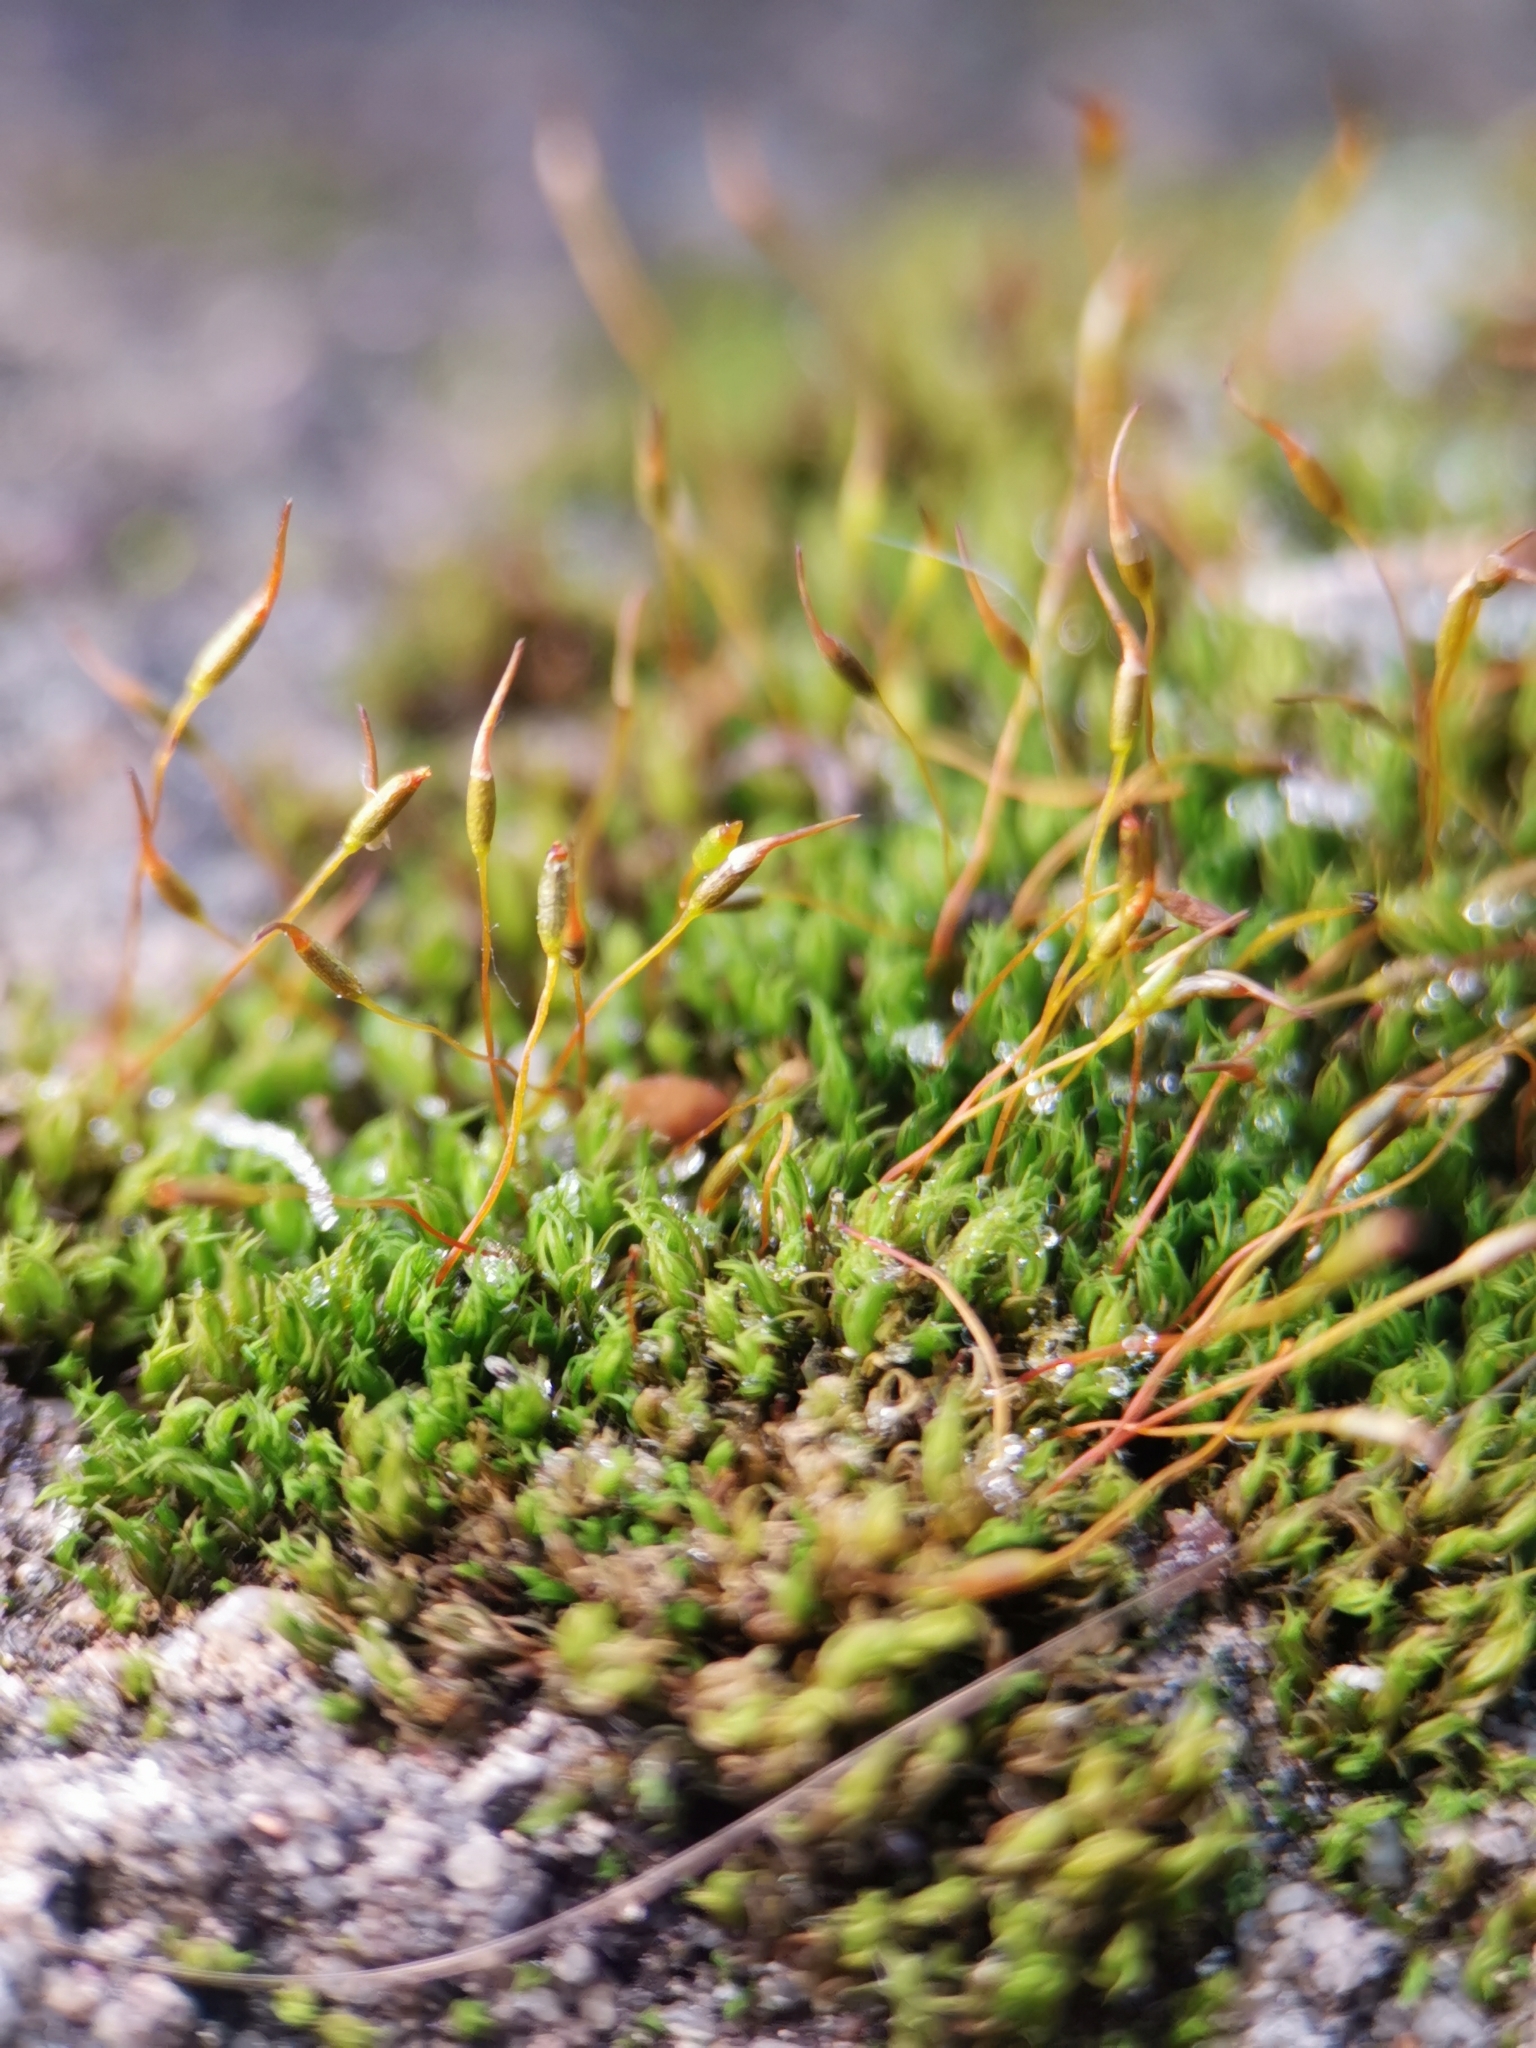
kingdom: Plantae
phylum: Bryophyta
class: Bryopsida
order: Pottiales
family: Pottiaceae
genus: Tortula
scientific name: Tortula muralis
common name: Wall screw-moss
